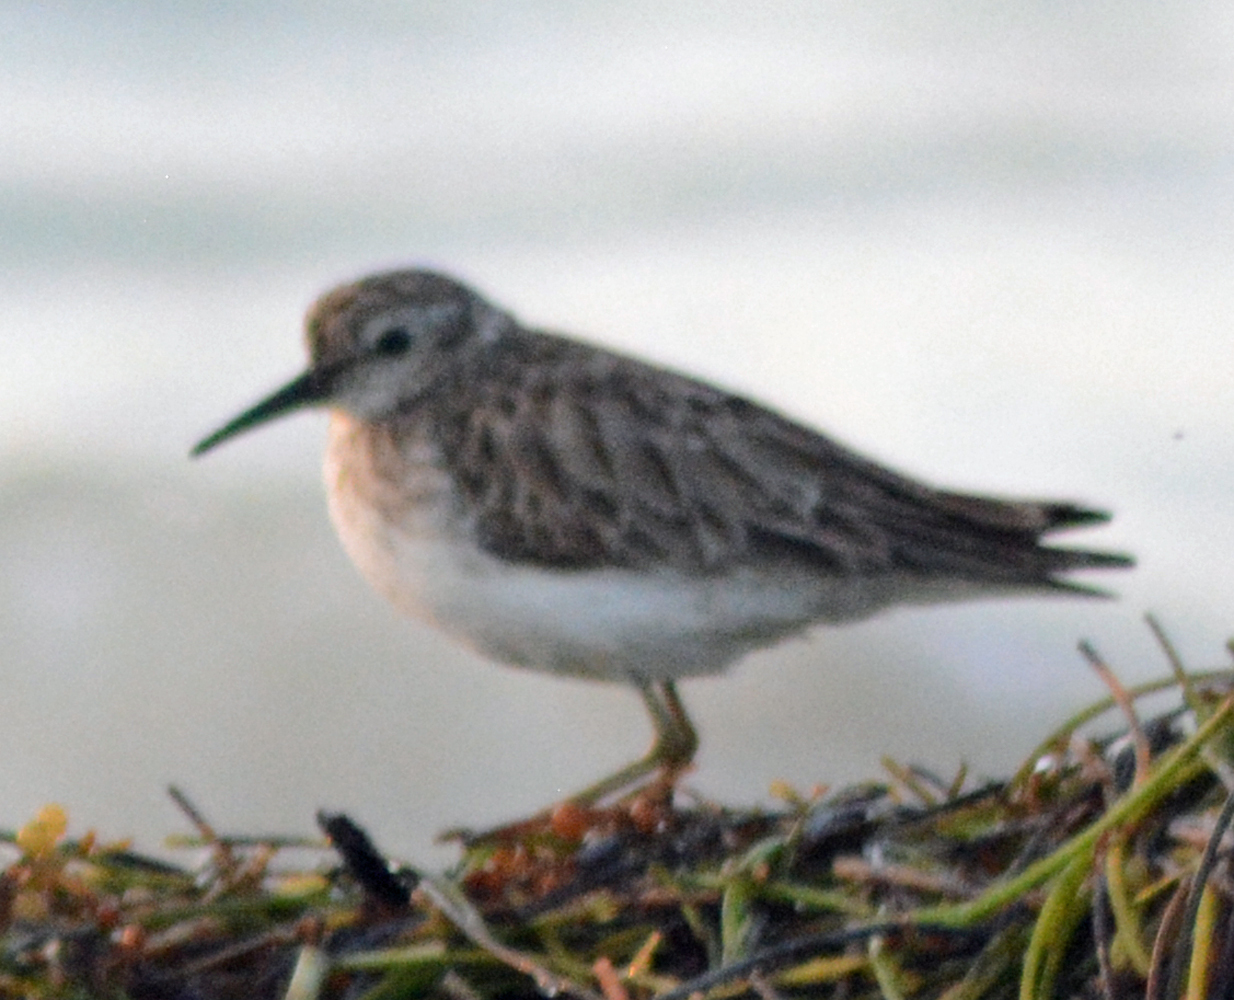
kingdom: Animalia
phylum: Chordata
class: Aves
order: Charadriiformes
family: Scolopacidae
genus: Calidris
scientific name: Calidris minutilla
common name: Least sandpiper
